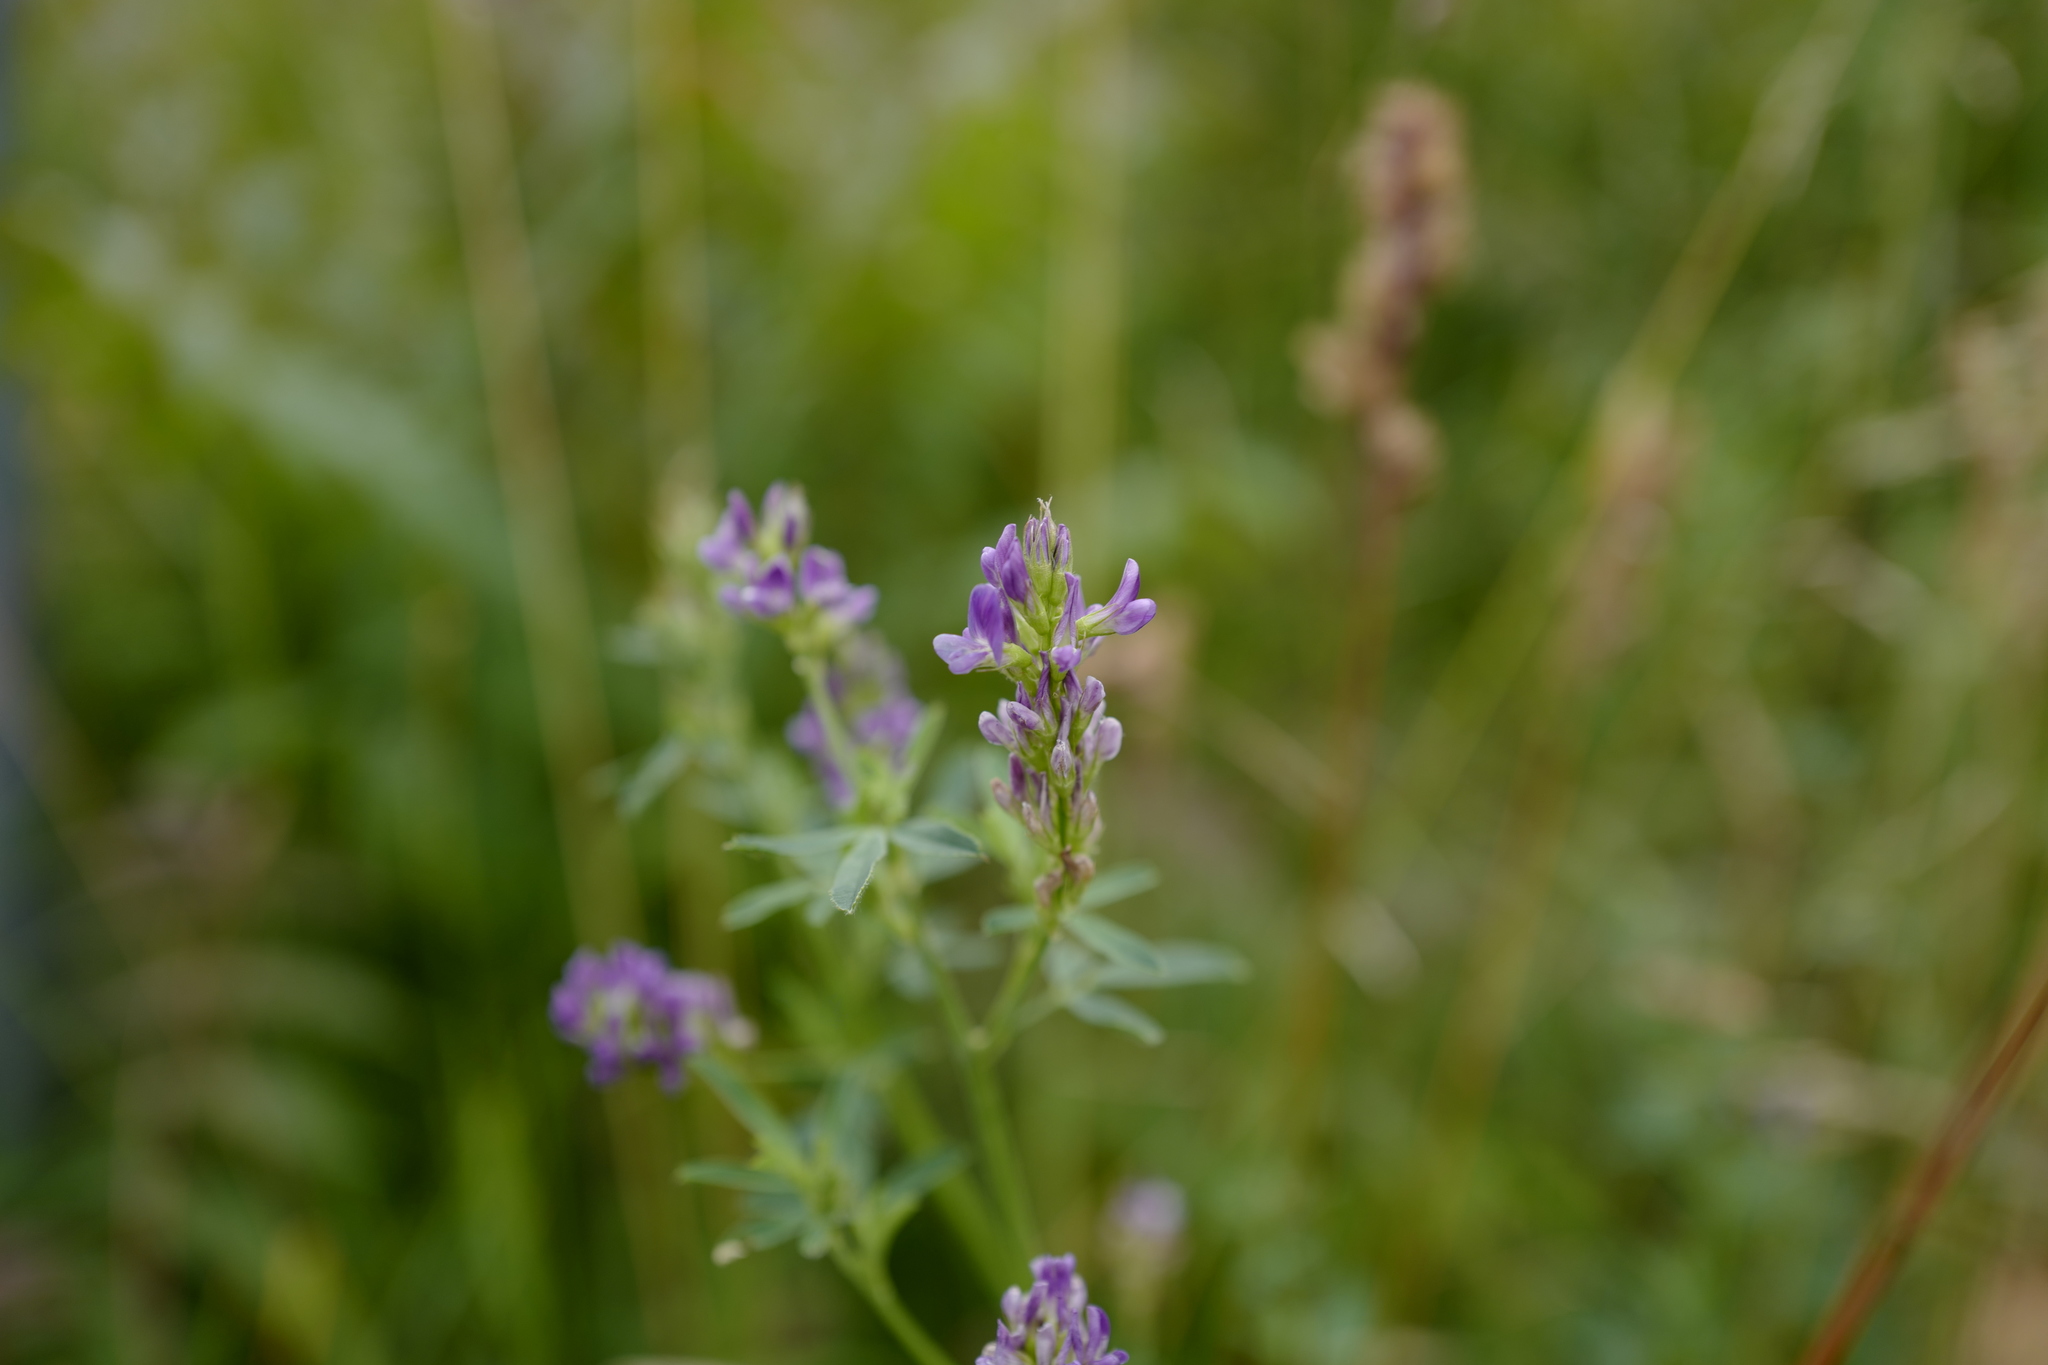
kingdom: Plantae
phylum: Tracheophyta
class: Magnoliopsida
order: Fabales
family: Fabaceae
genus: Medicago
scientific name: Medicago sativa
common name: Alfalfa
